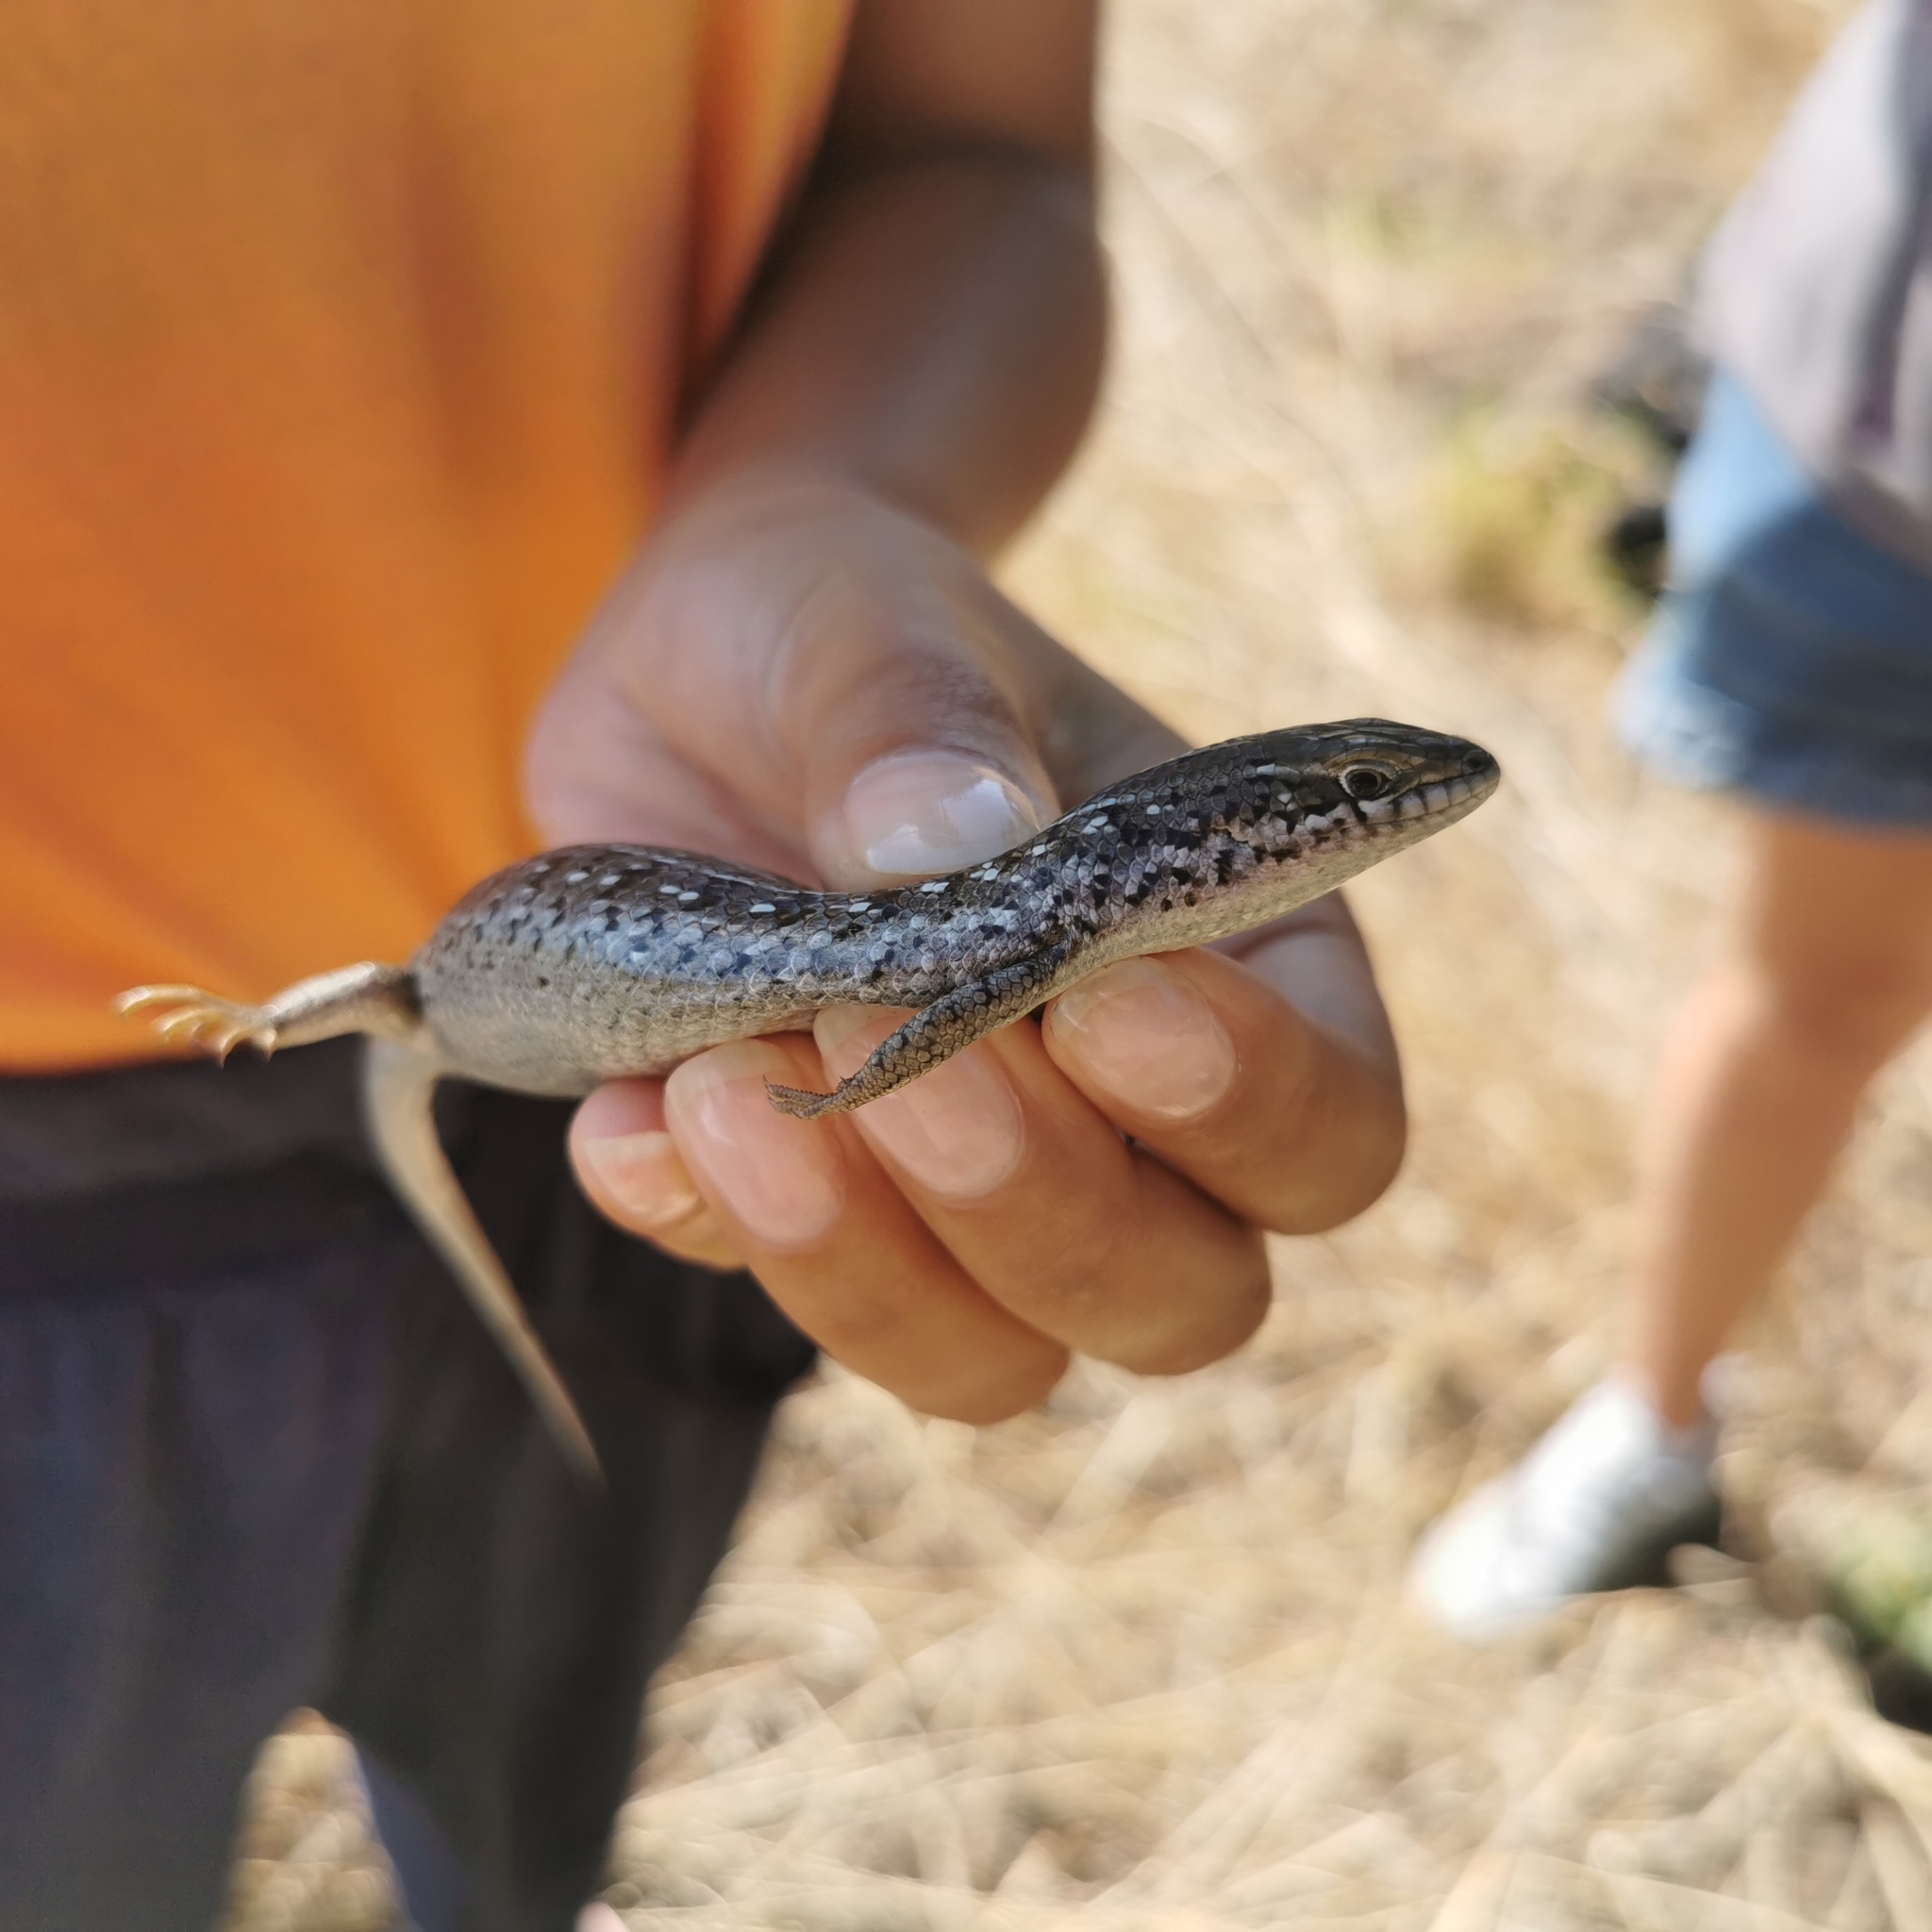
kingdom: Animalia
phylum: Chordata
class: Squamata
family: Scincidae
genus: Trachylepis
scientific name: Trachylepis capensis
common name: Cape skink
